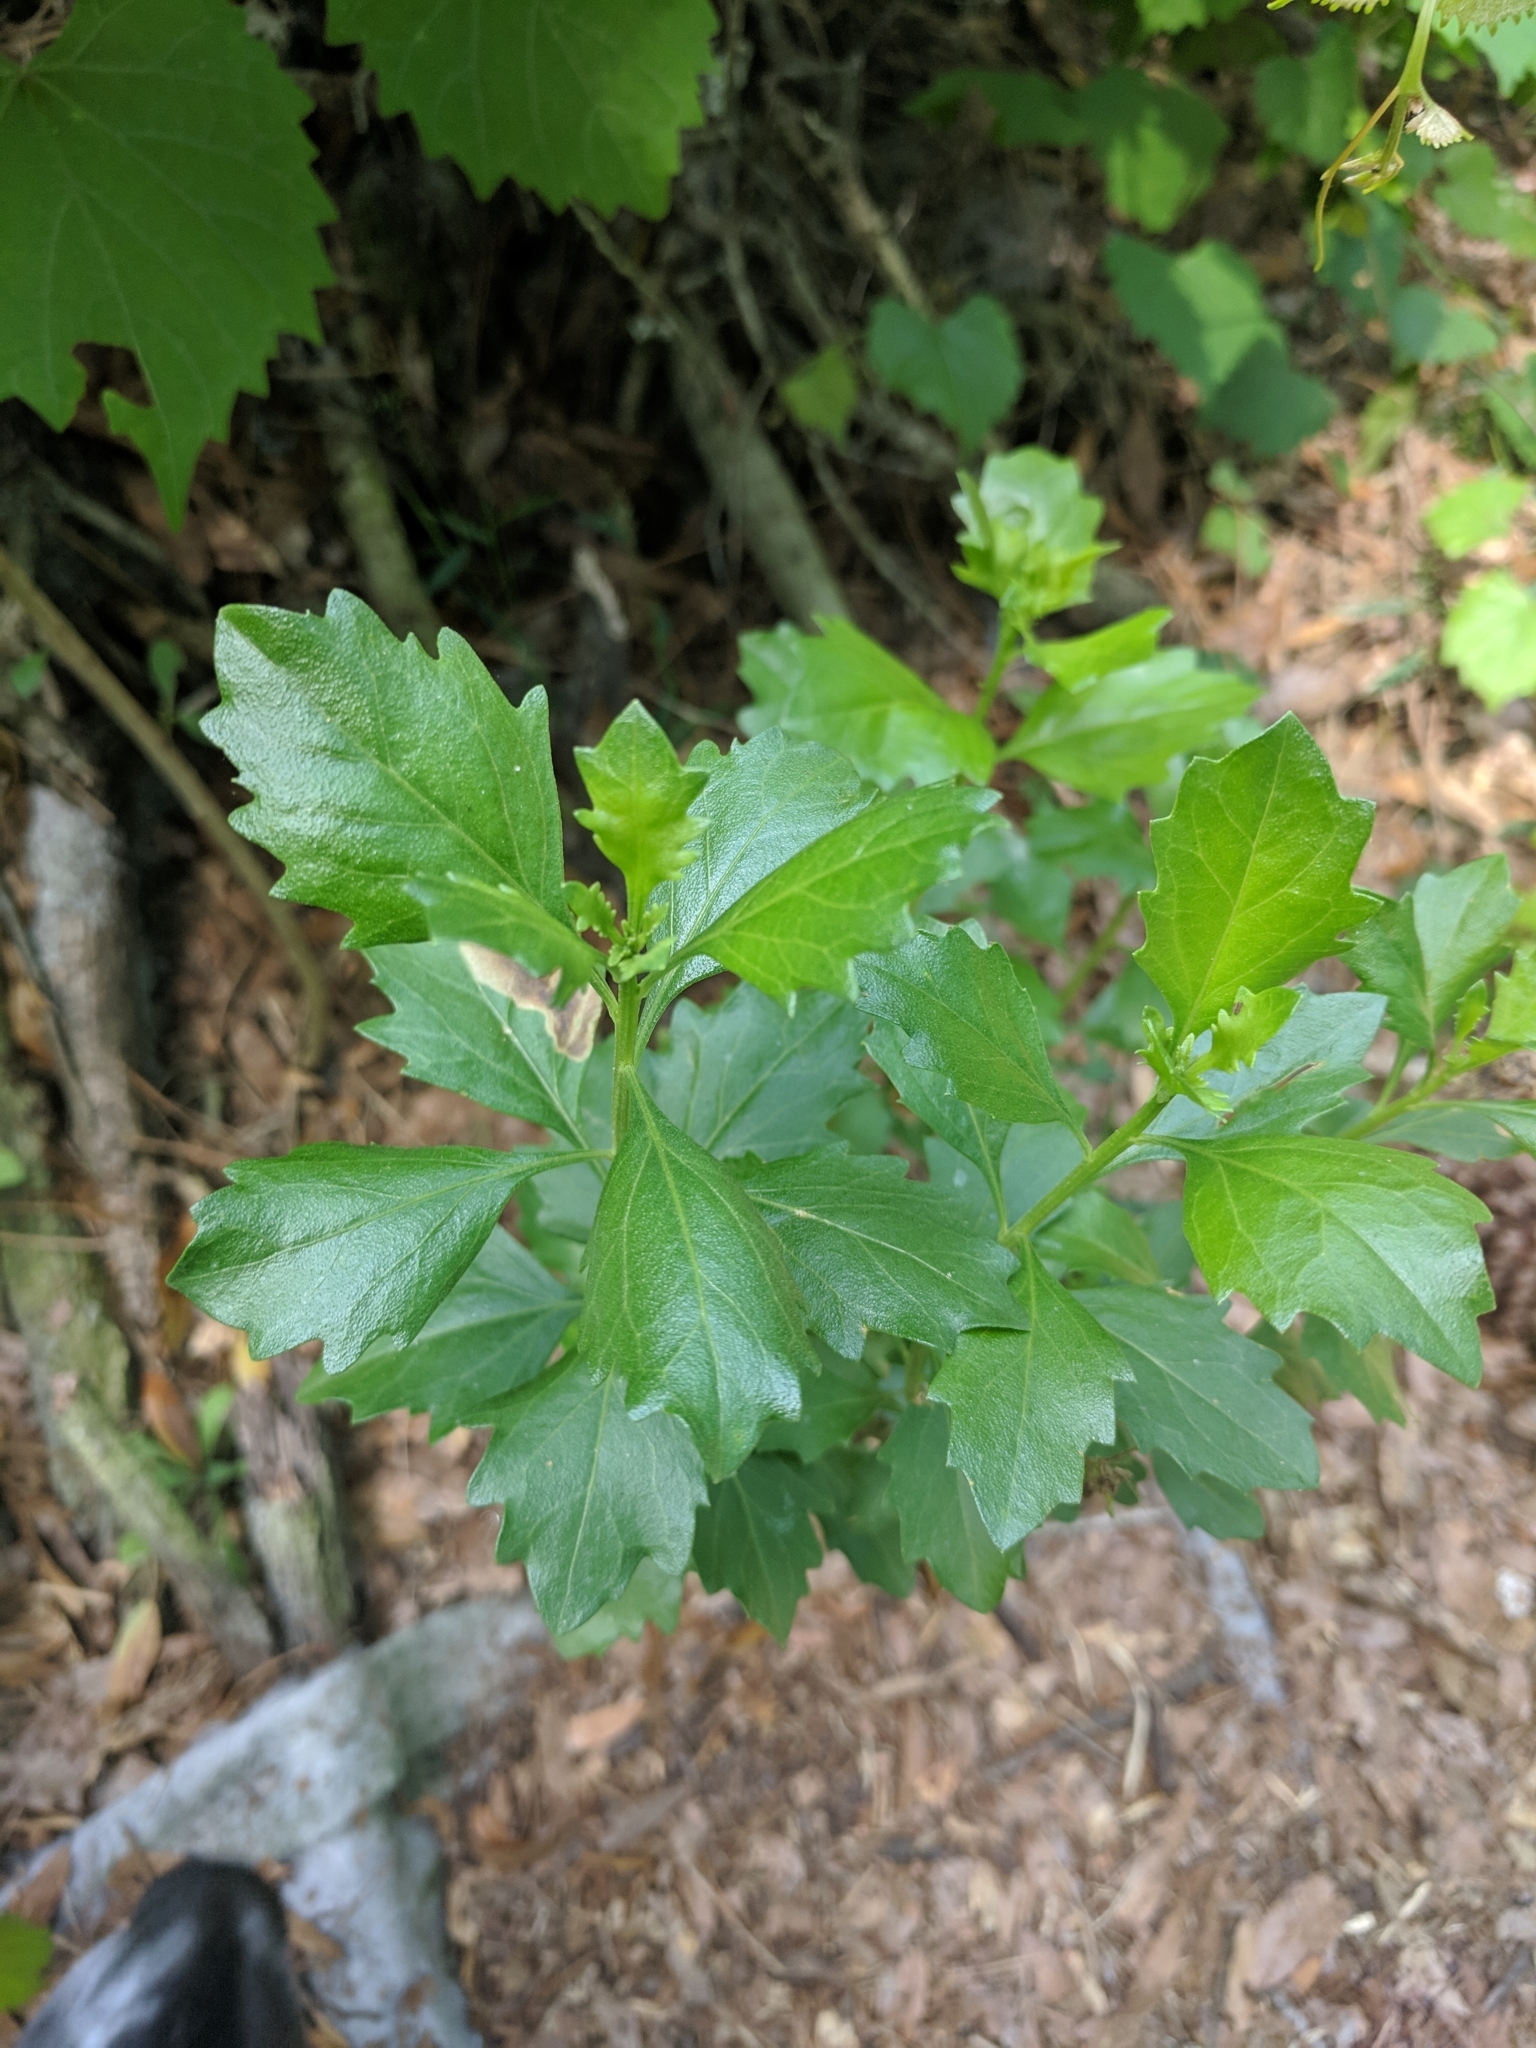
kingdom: Plantae
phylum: Tracheophyta
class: Magnoliopsida
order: Asterales
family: Asteraceae
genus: Baccharis
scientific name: Baccharis halimifolia
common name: Eastern baccharis
